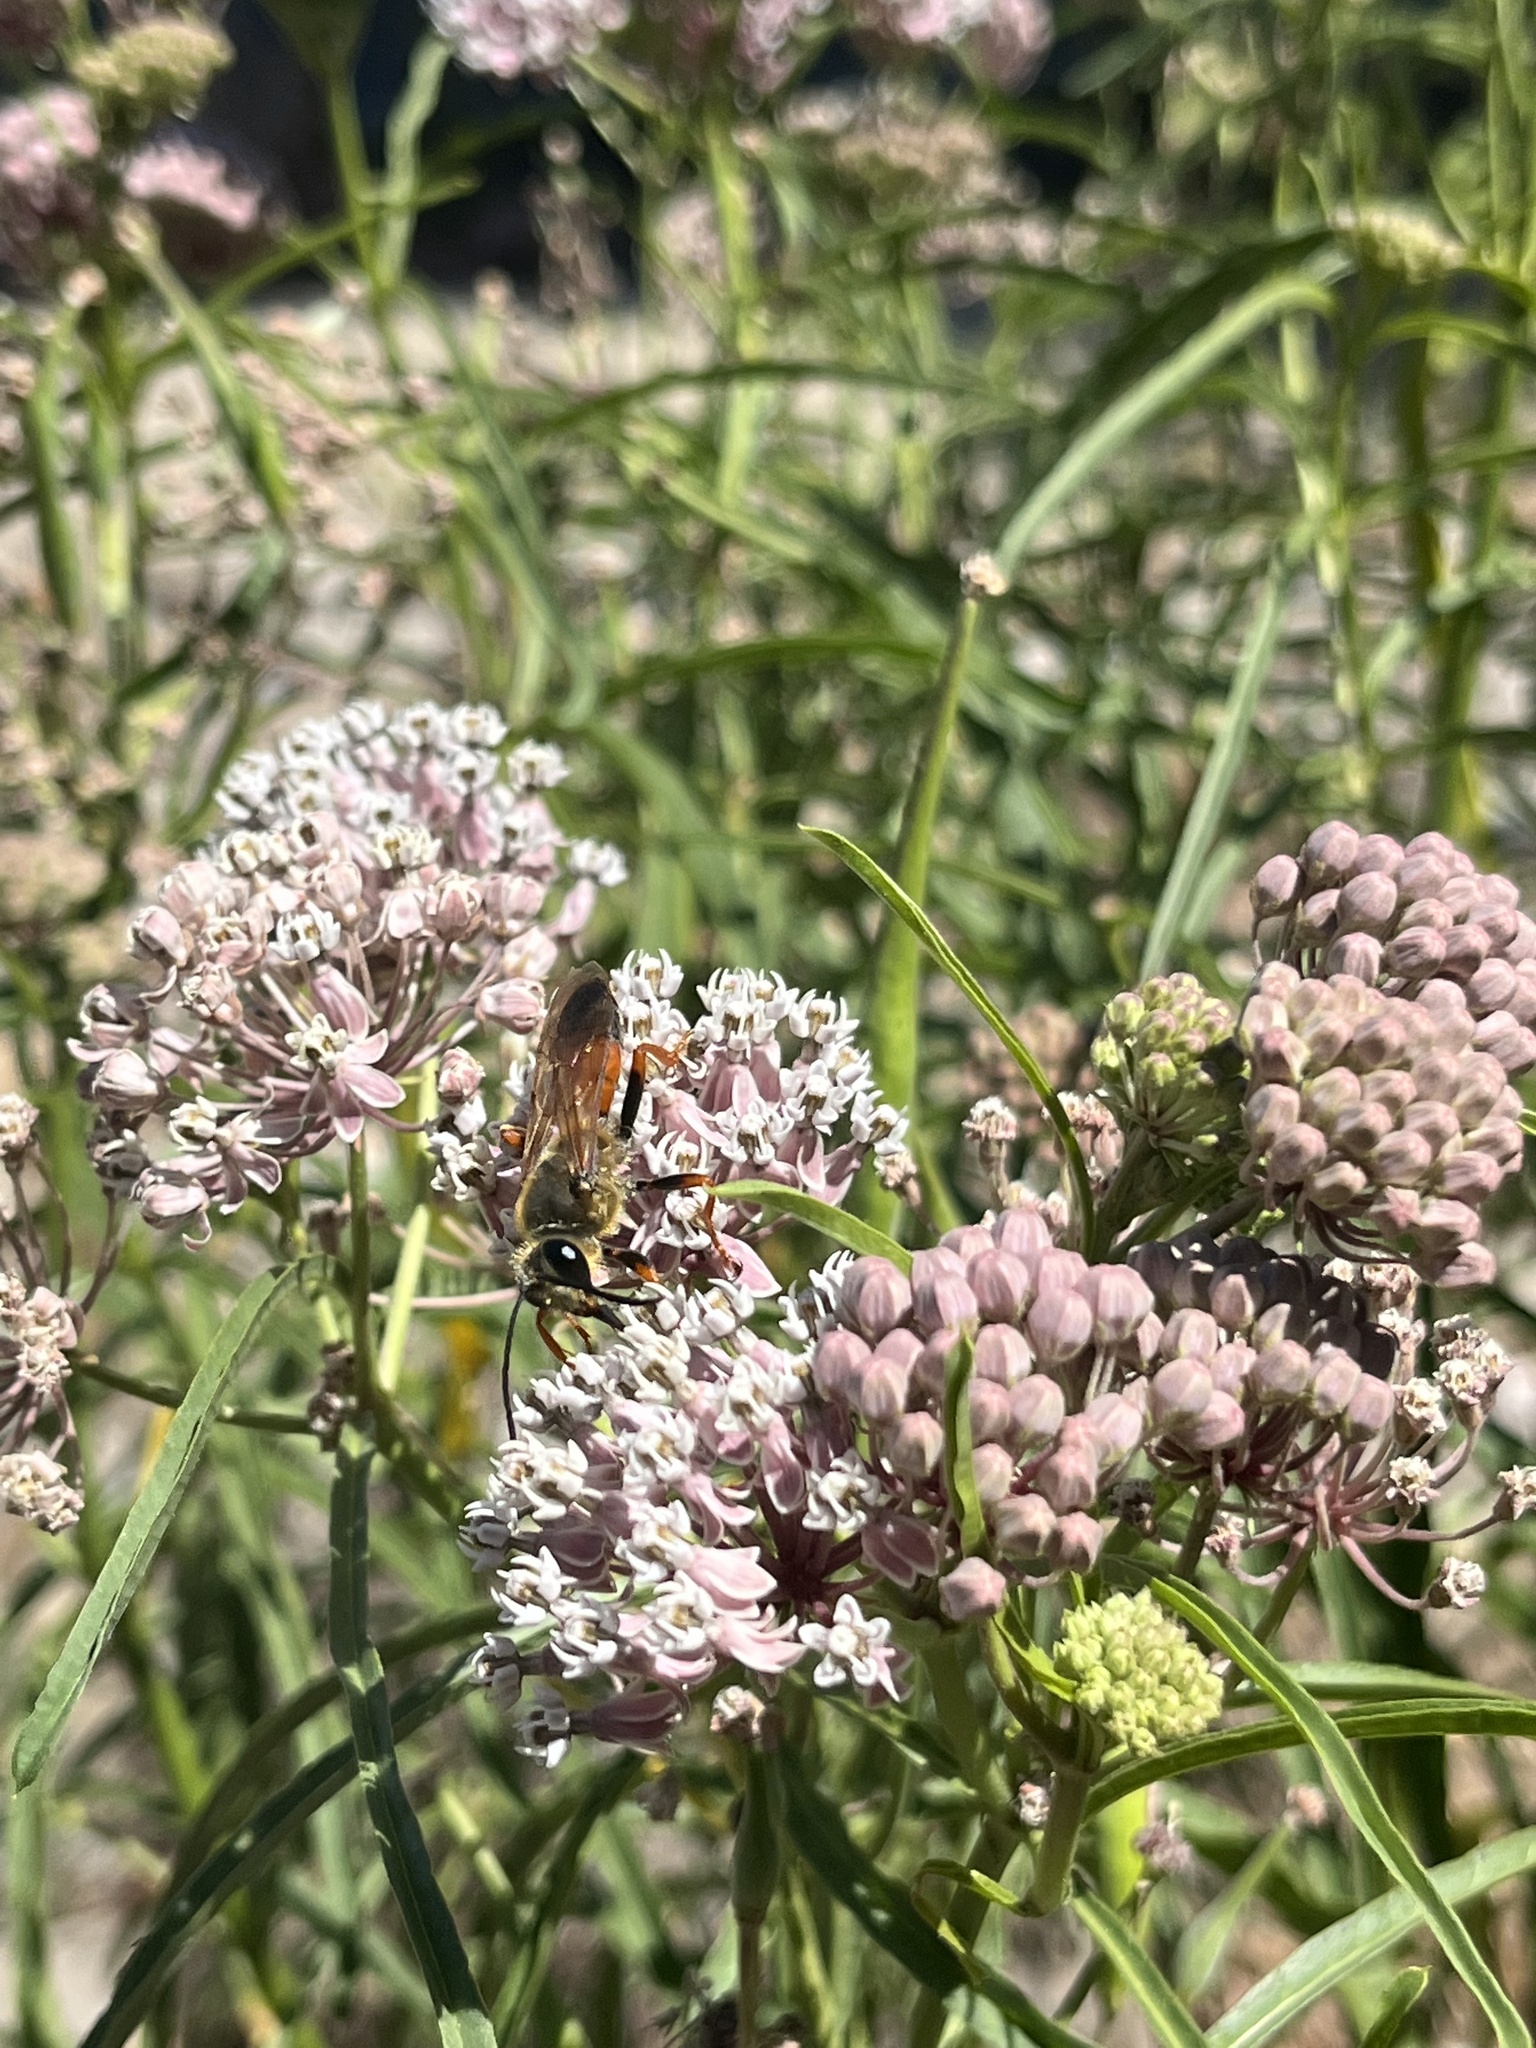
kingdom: Animalia
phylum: Arthropoda
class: Insecta
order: Hymenoptera
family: Sphecidae
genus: Sphex
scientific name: Sphex ichneumoneus
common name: Great golden digger wasp
